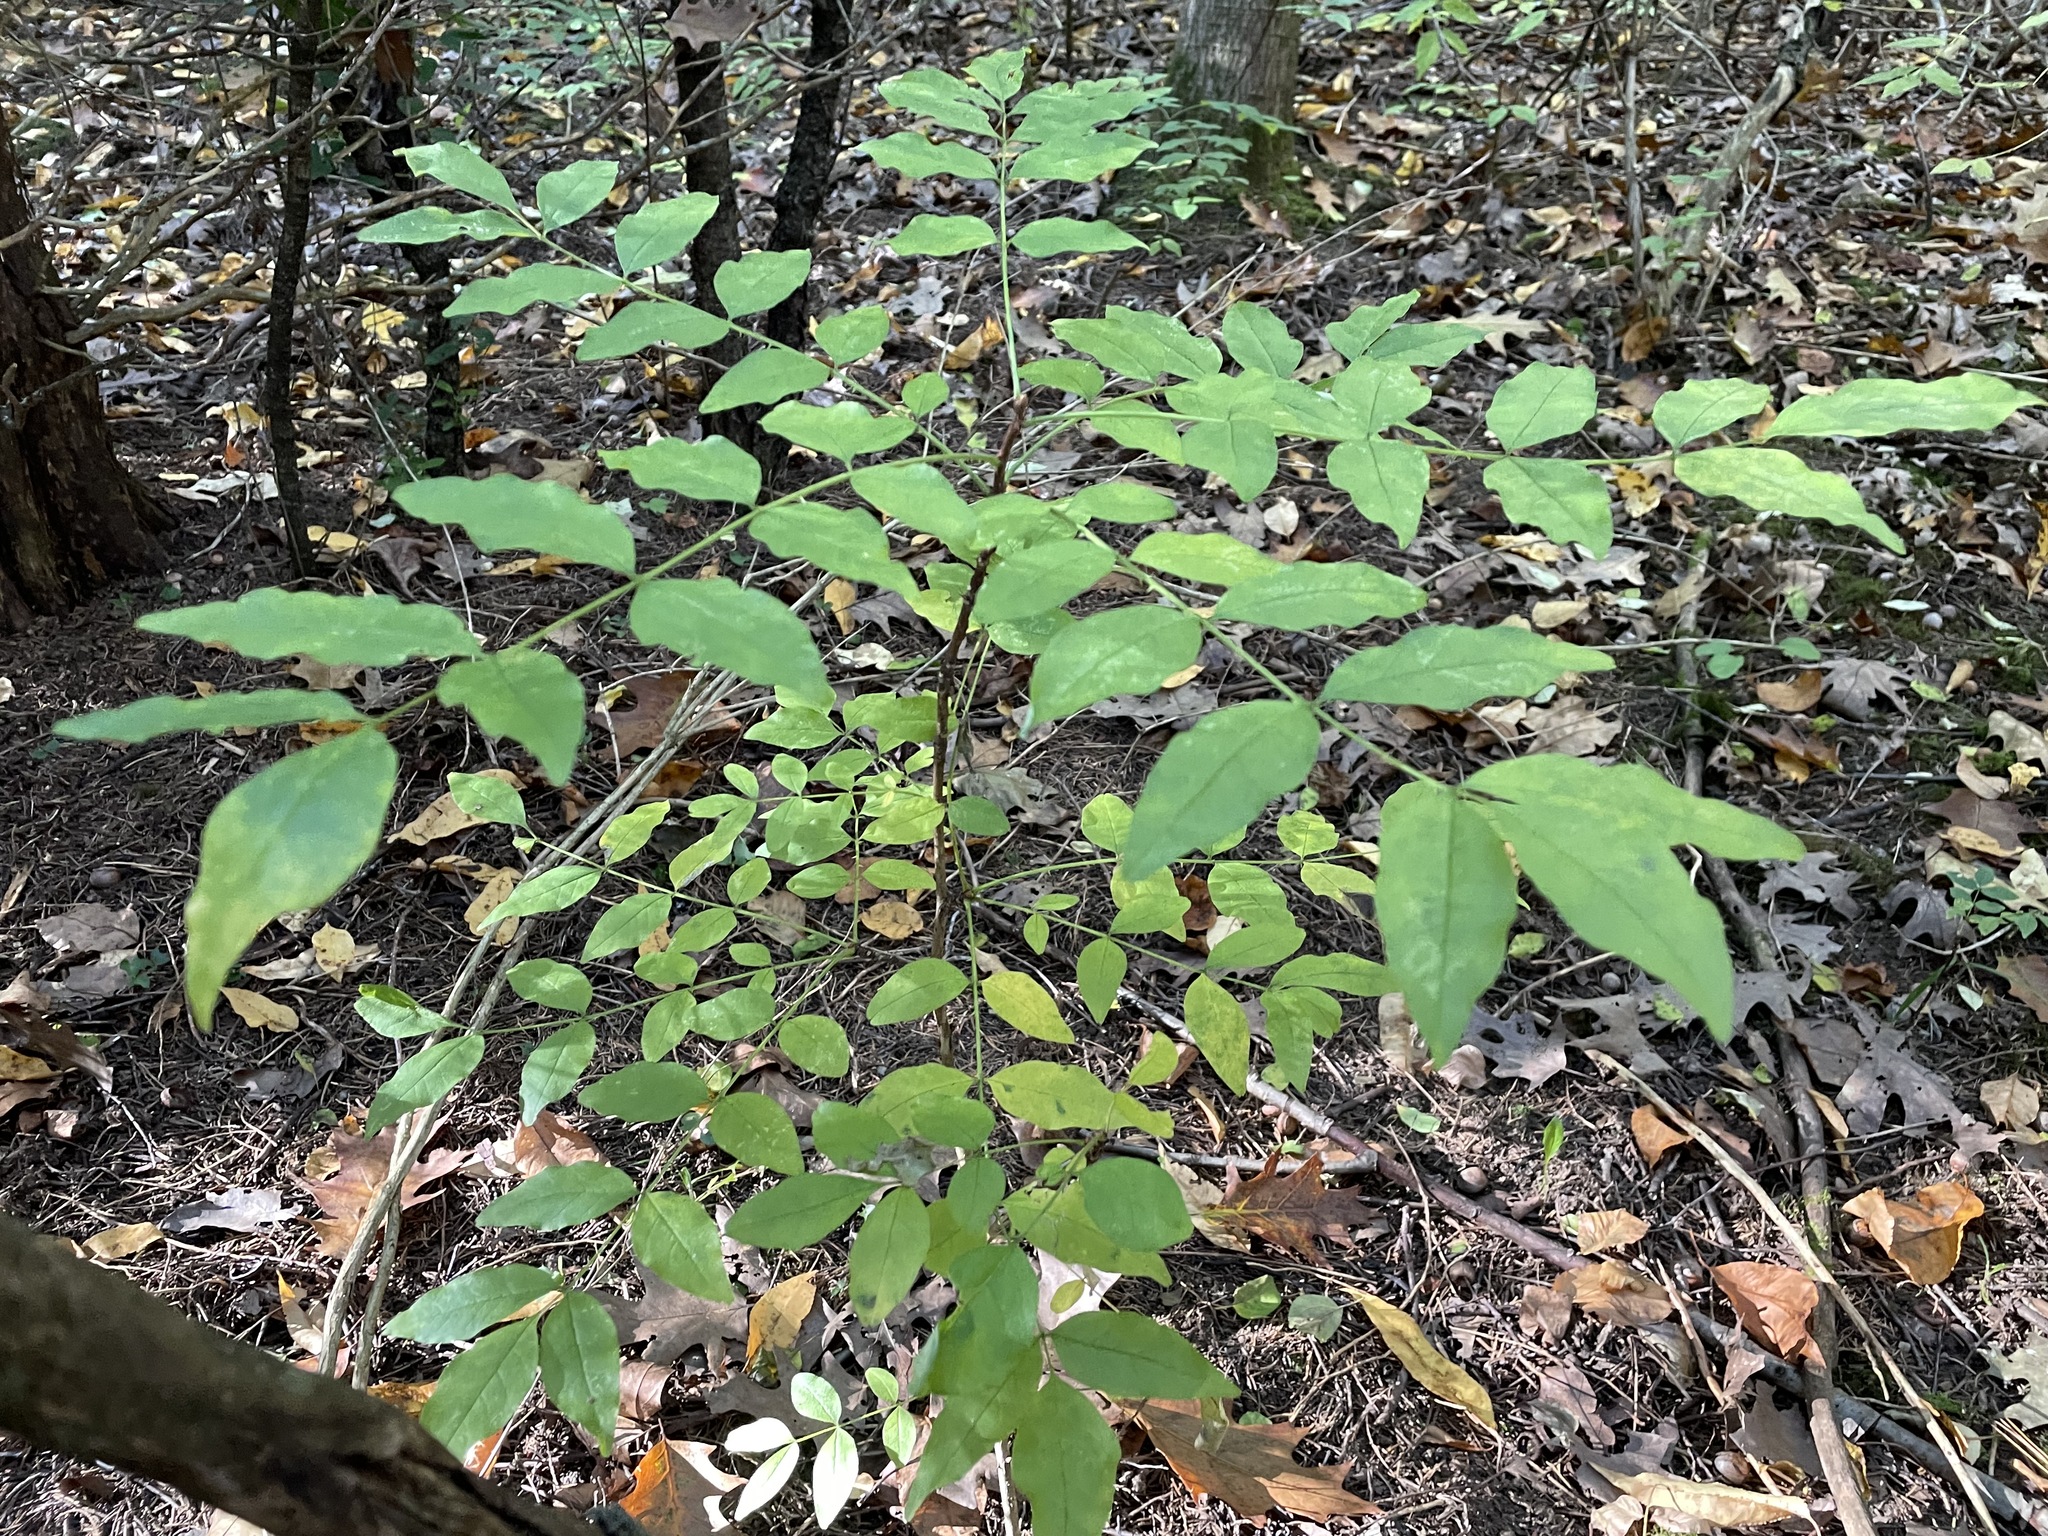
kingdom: Plantae
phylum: Tracheophyta
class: Magnoliopsida
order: Sapindales
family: Rutaceae
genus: Zanthoxylum
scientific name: Zanthoxylum americanum
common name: Northern prickly-ash
